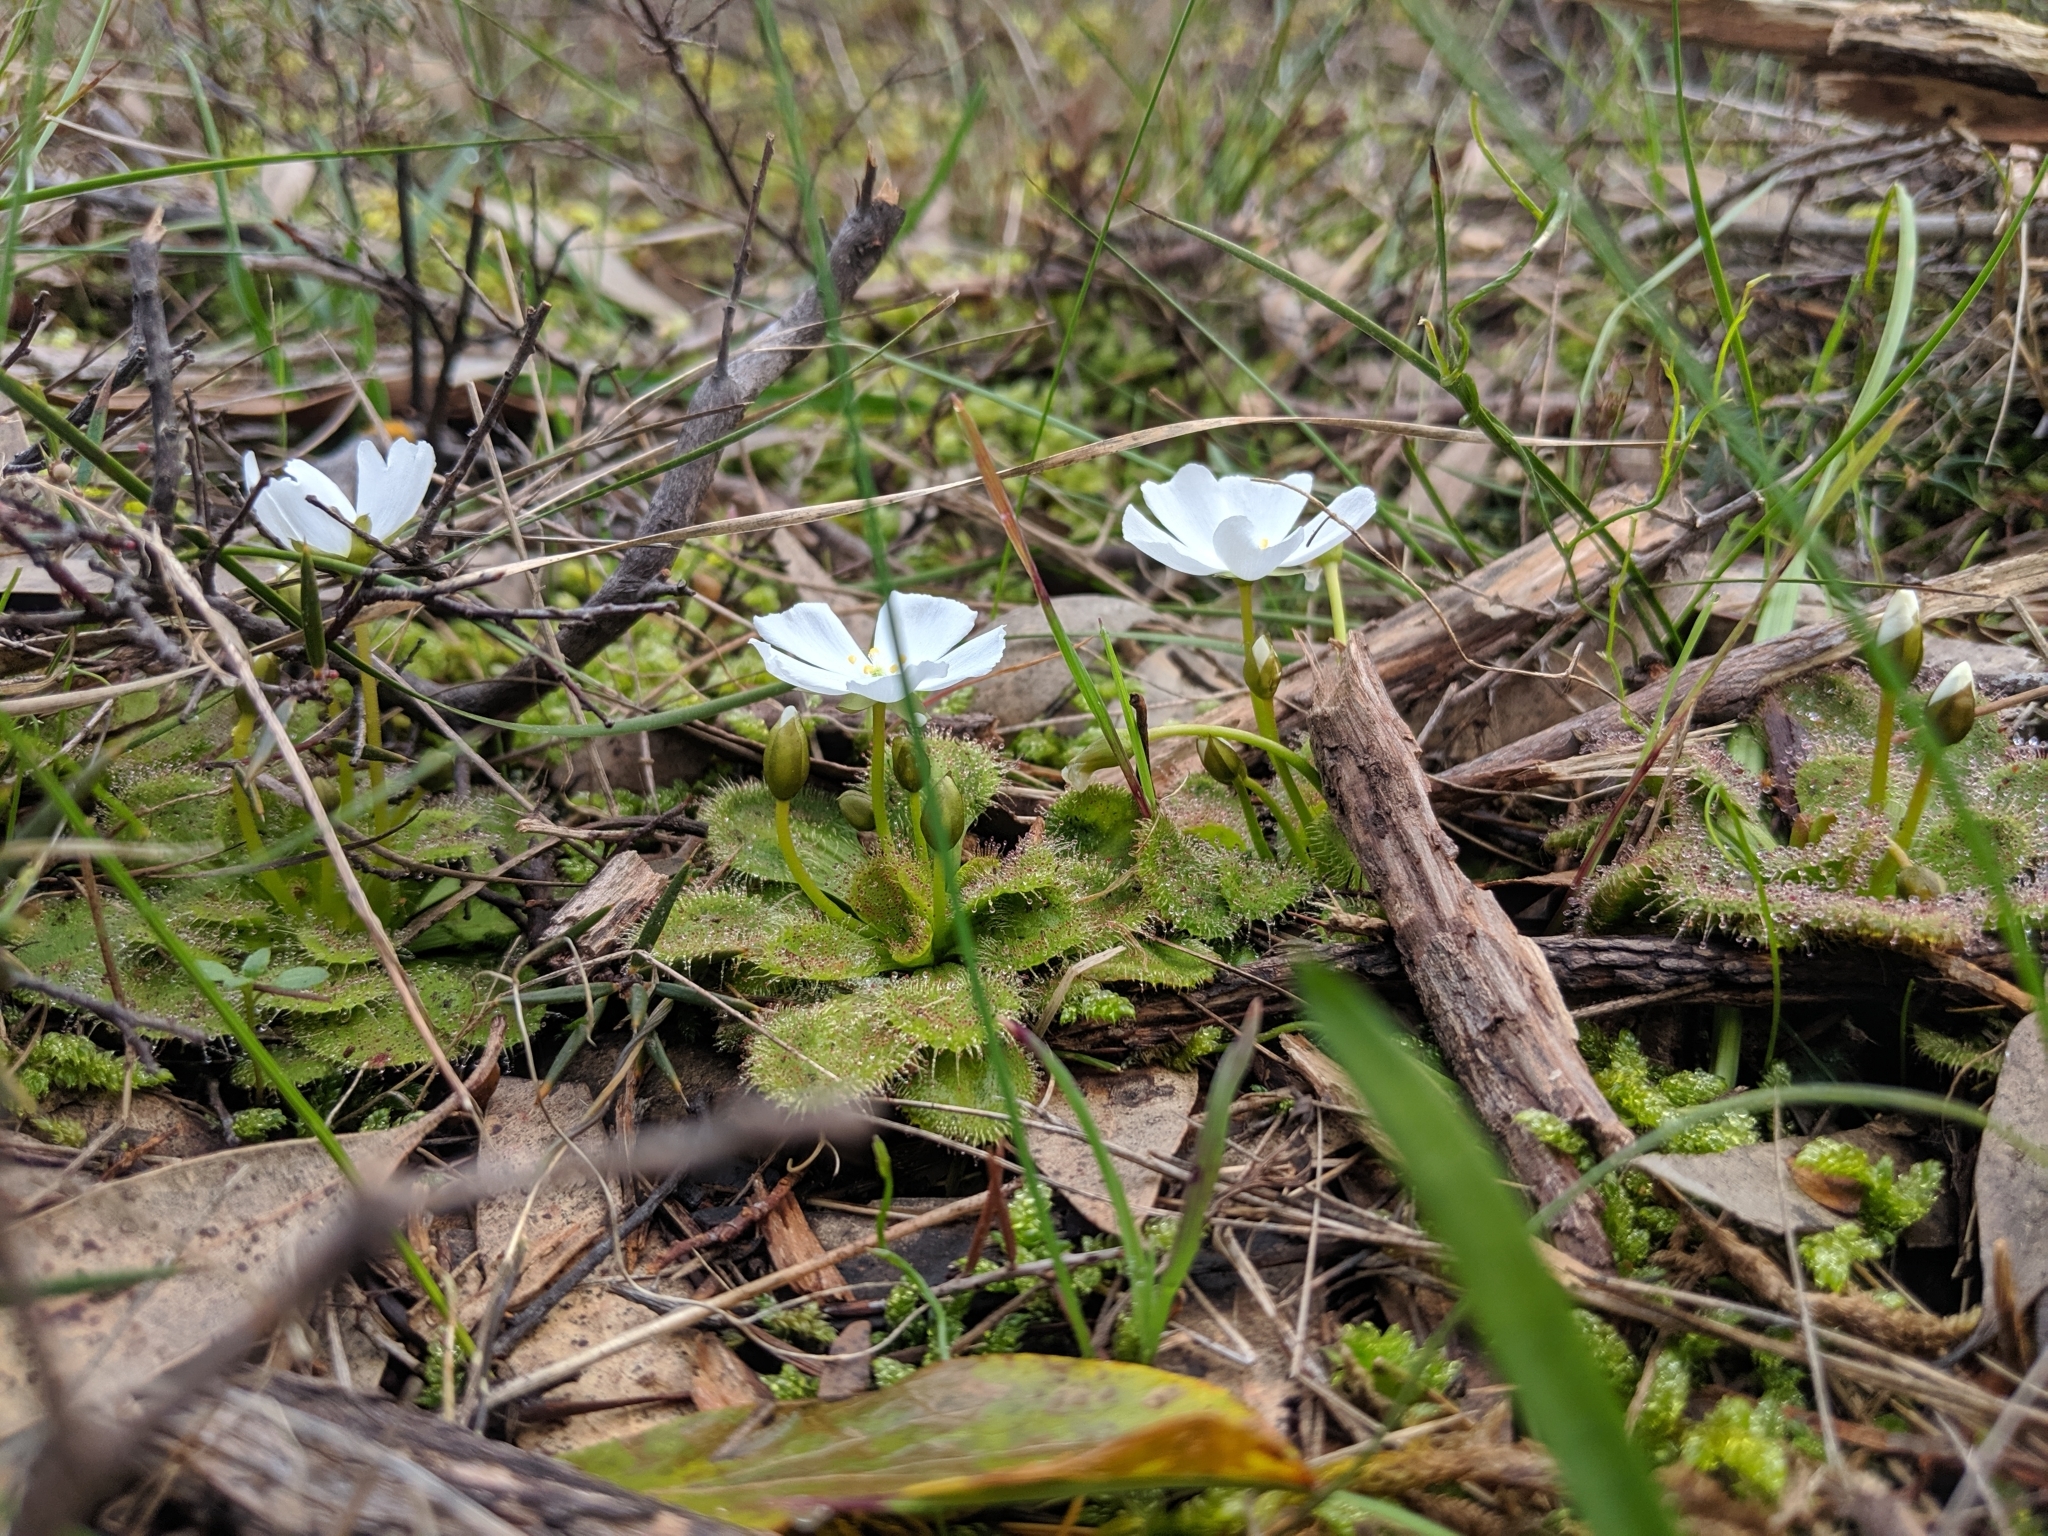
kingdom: Plantae
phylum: Tracheophyta
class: Magnoliopsida
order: Caryophyllales
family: Droseraceae
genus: Drosera
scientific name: Drosera whittakeri
